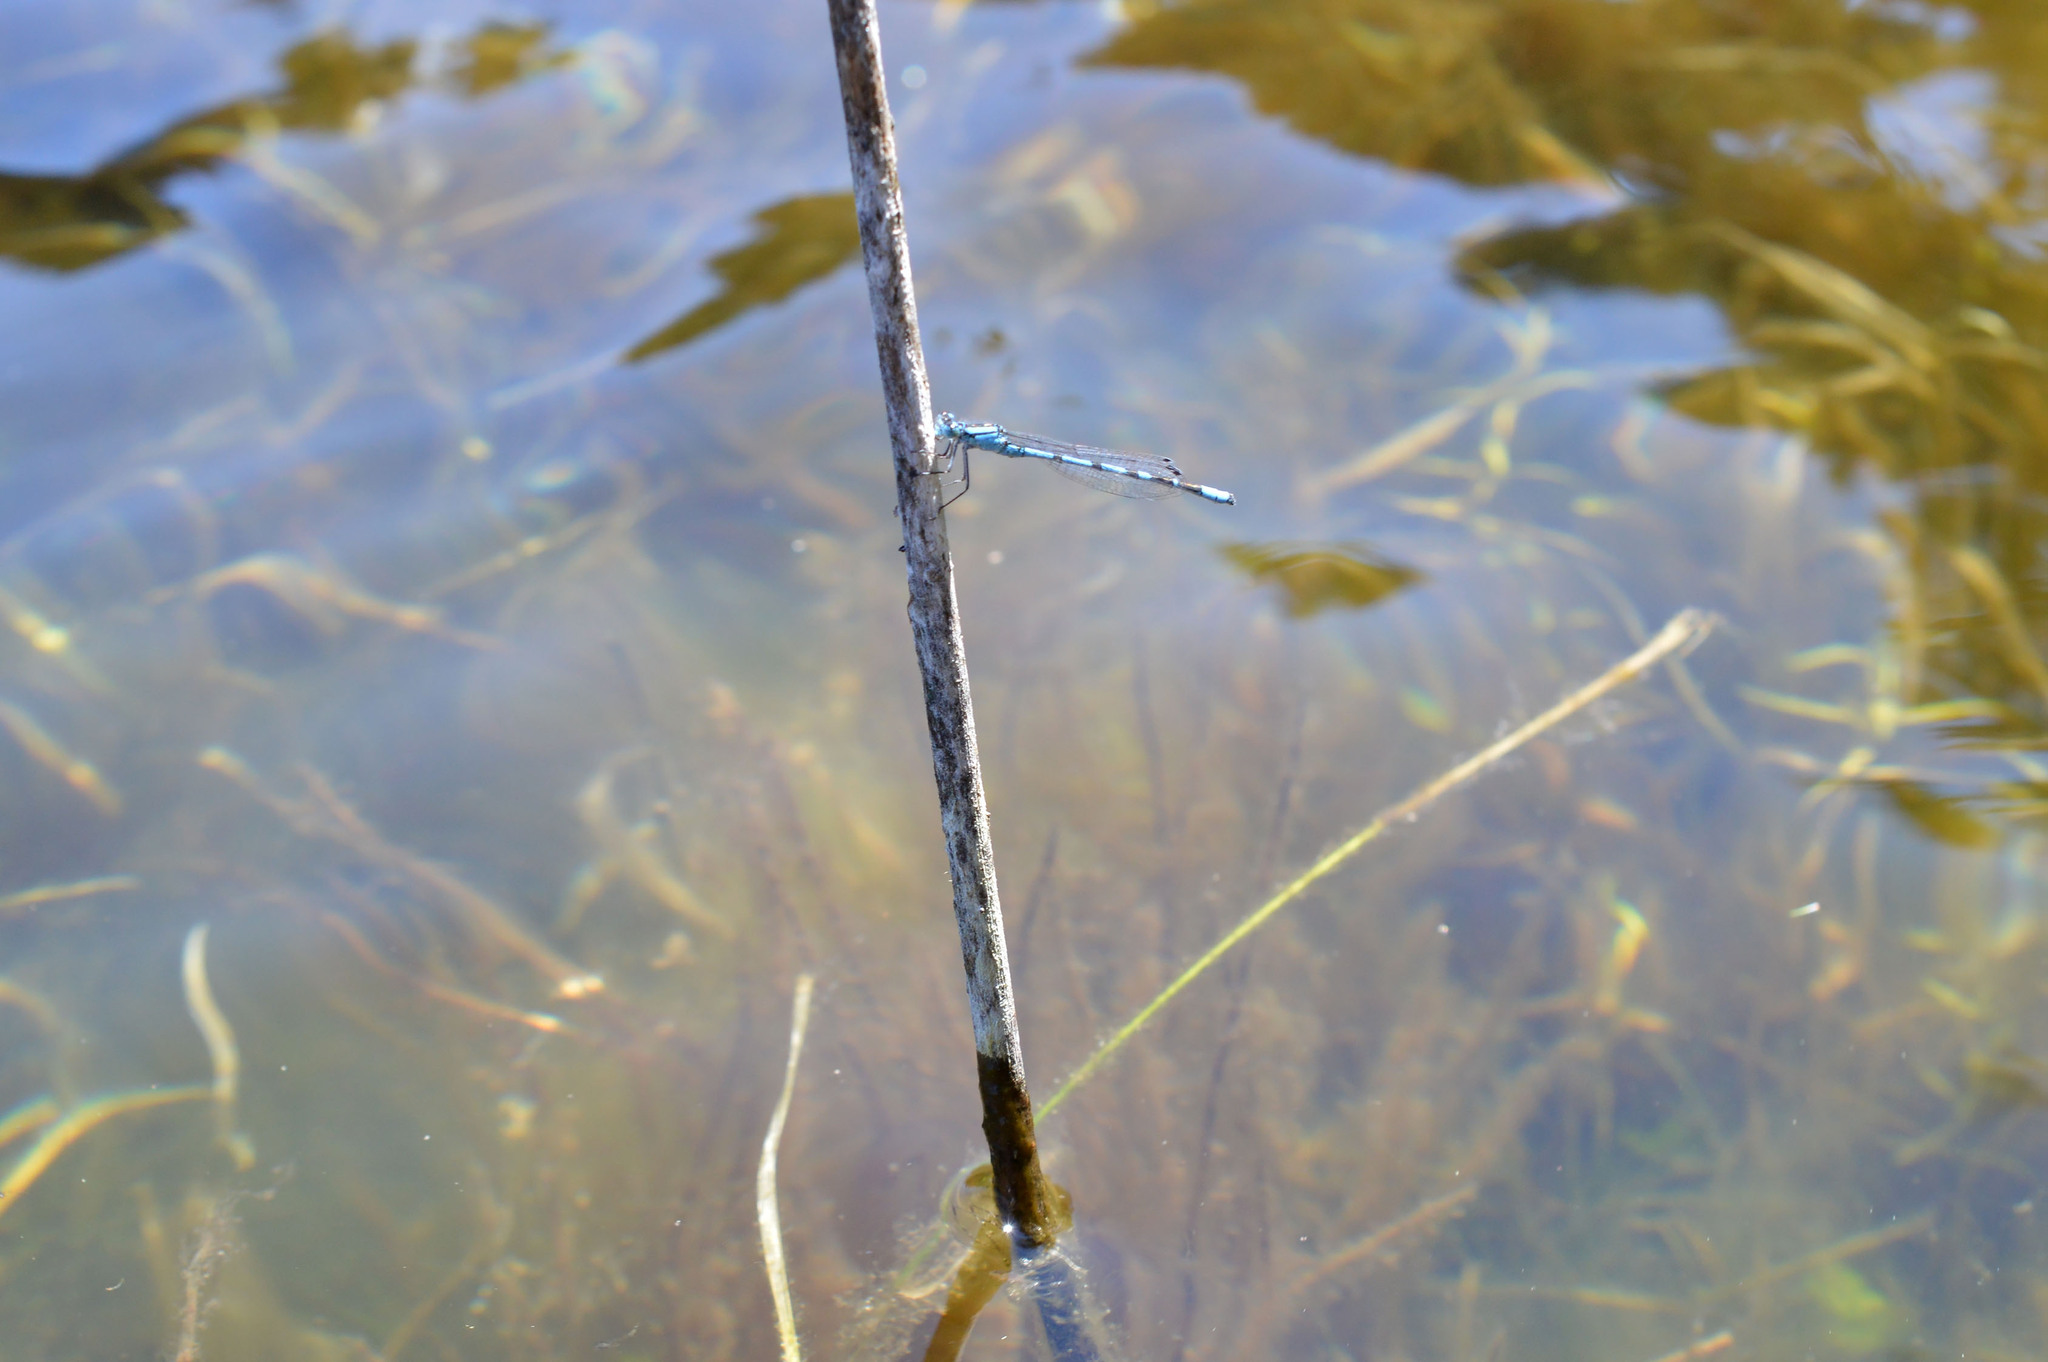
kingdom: Animalia
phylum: Arthropoda
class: Insecta
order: Odonata
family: Coenagrionidae
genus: Enallagma
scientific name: Enallagma cyathigerum
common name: Common blue damselfly
